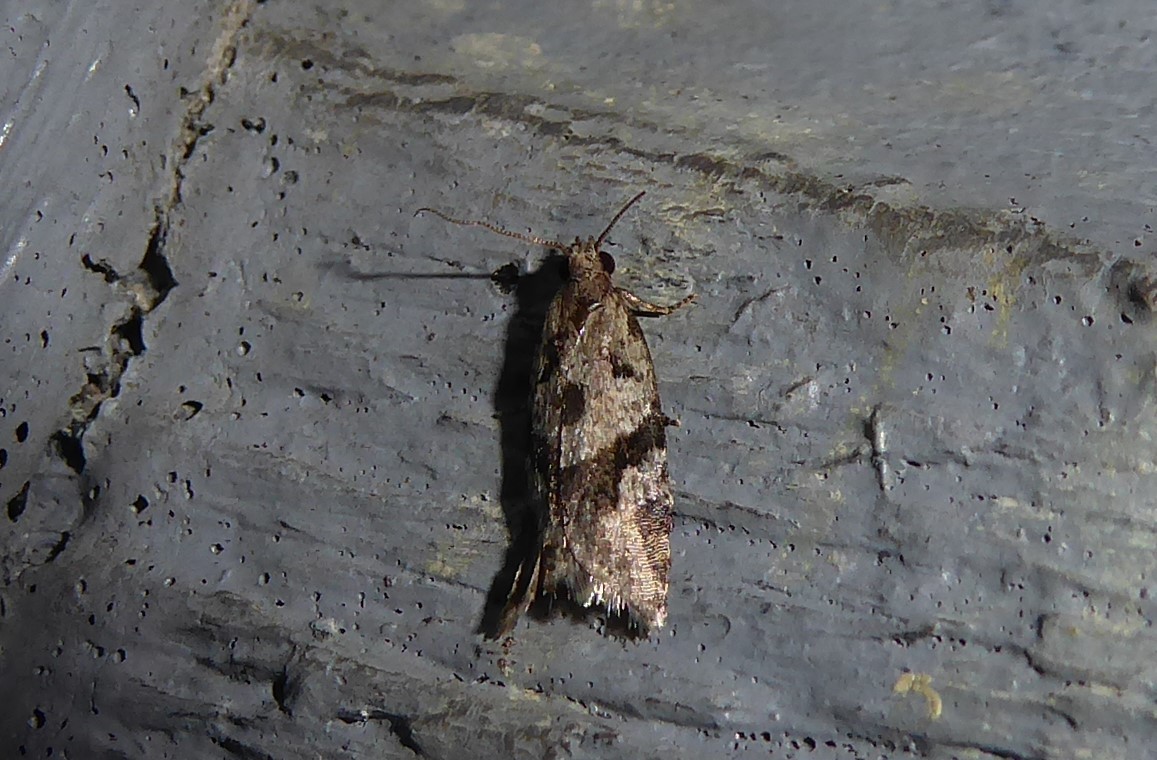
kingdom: Animalia
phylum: Arthropoda
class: Insecta
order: Lepidoptera
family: Tortricidae
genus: Capua
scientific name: Capua semiferana
